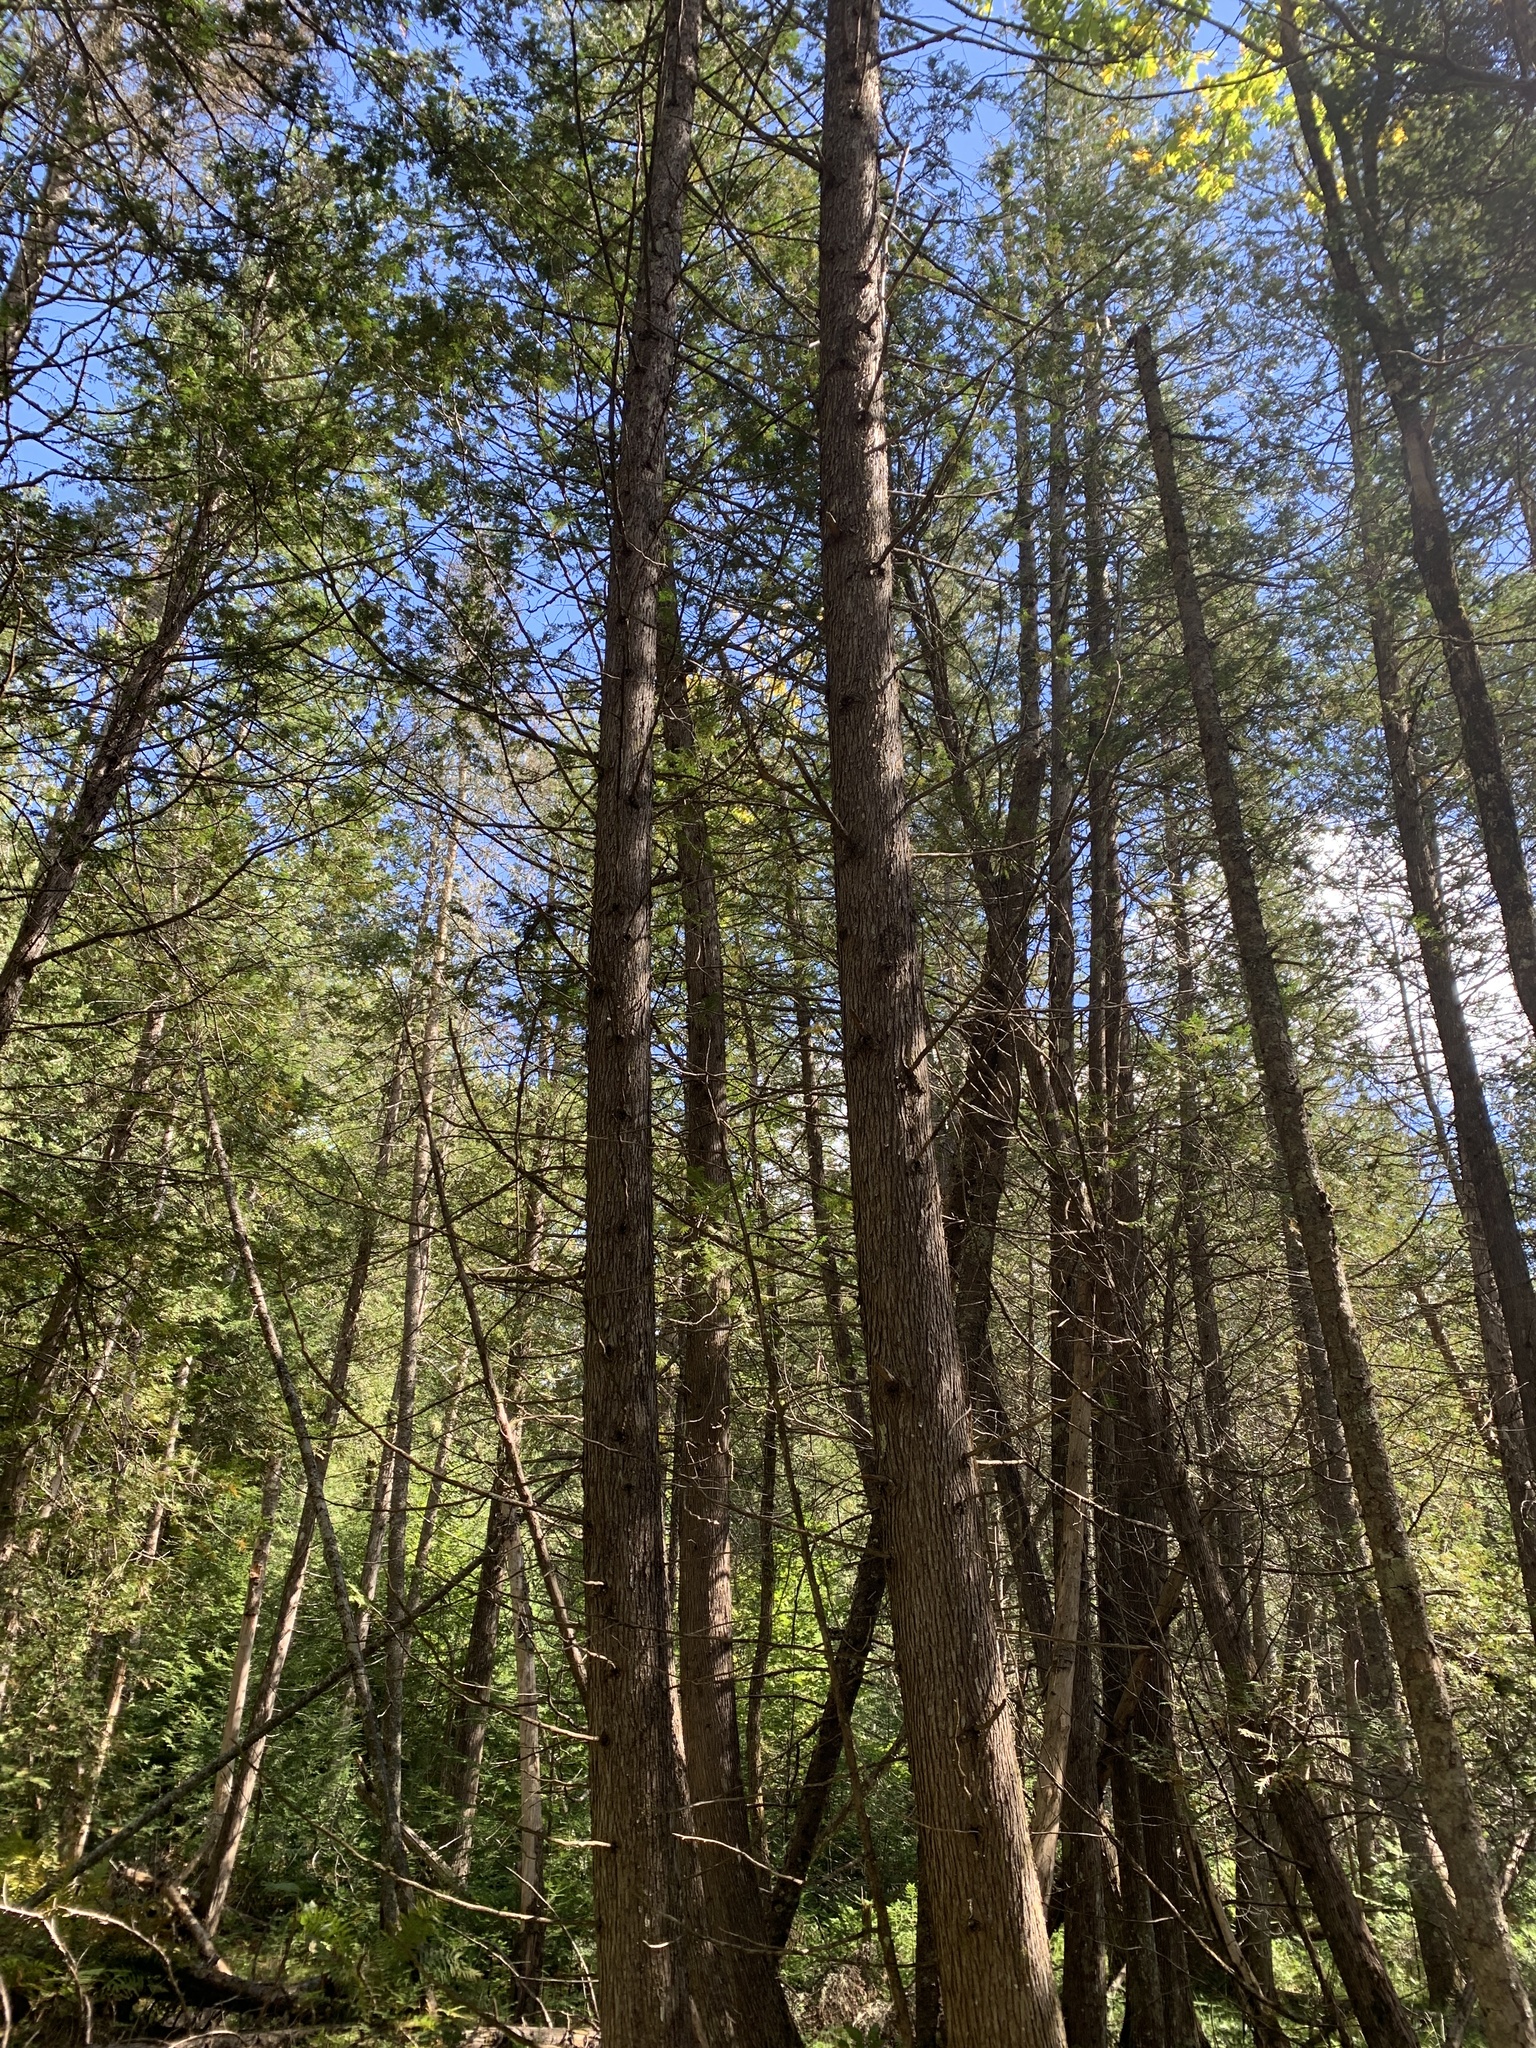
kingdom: Plantae
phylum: Tracheophyta
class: Pinopsida
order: Pinales
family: Cupressaceae
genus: Thuja
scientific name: Thuja occidentalis
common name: Northern white-cedar
